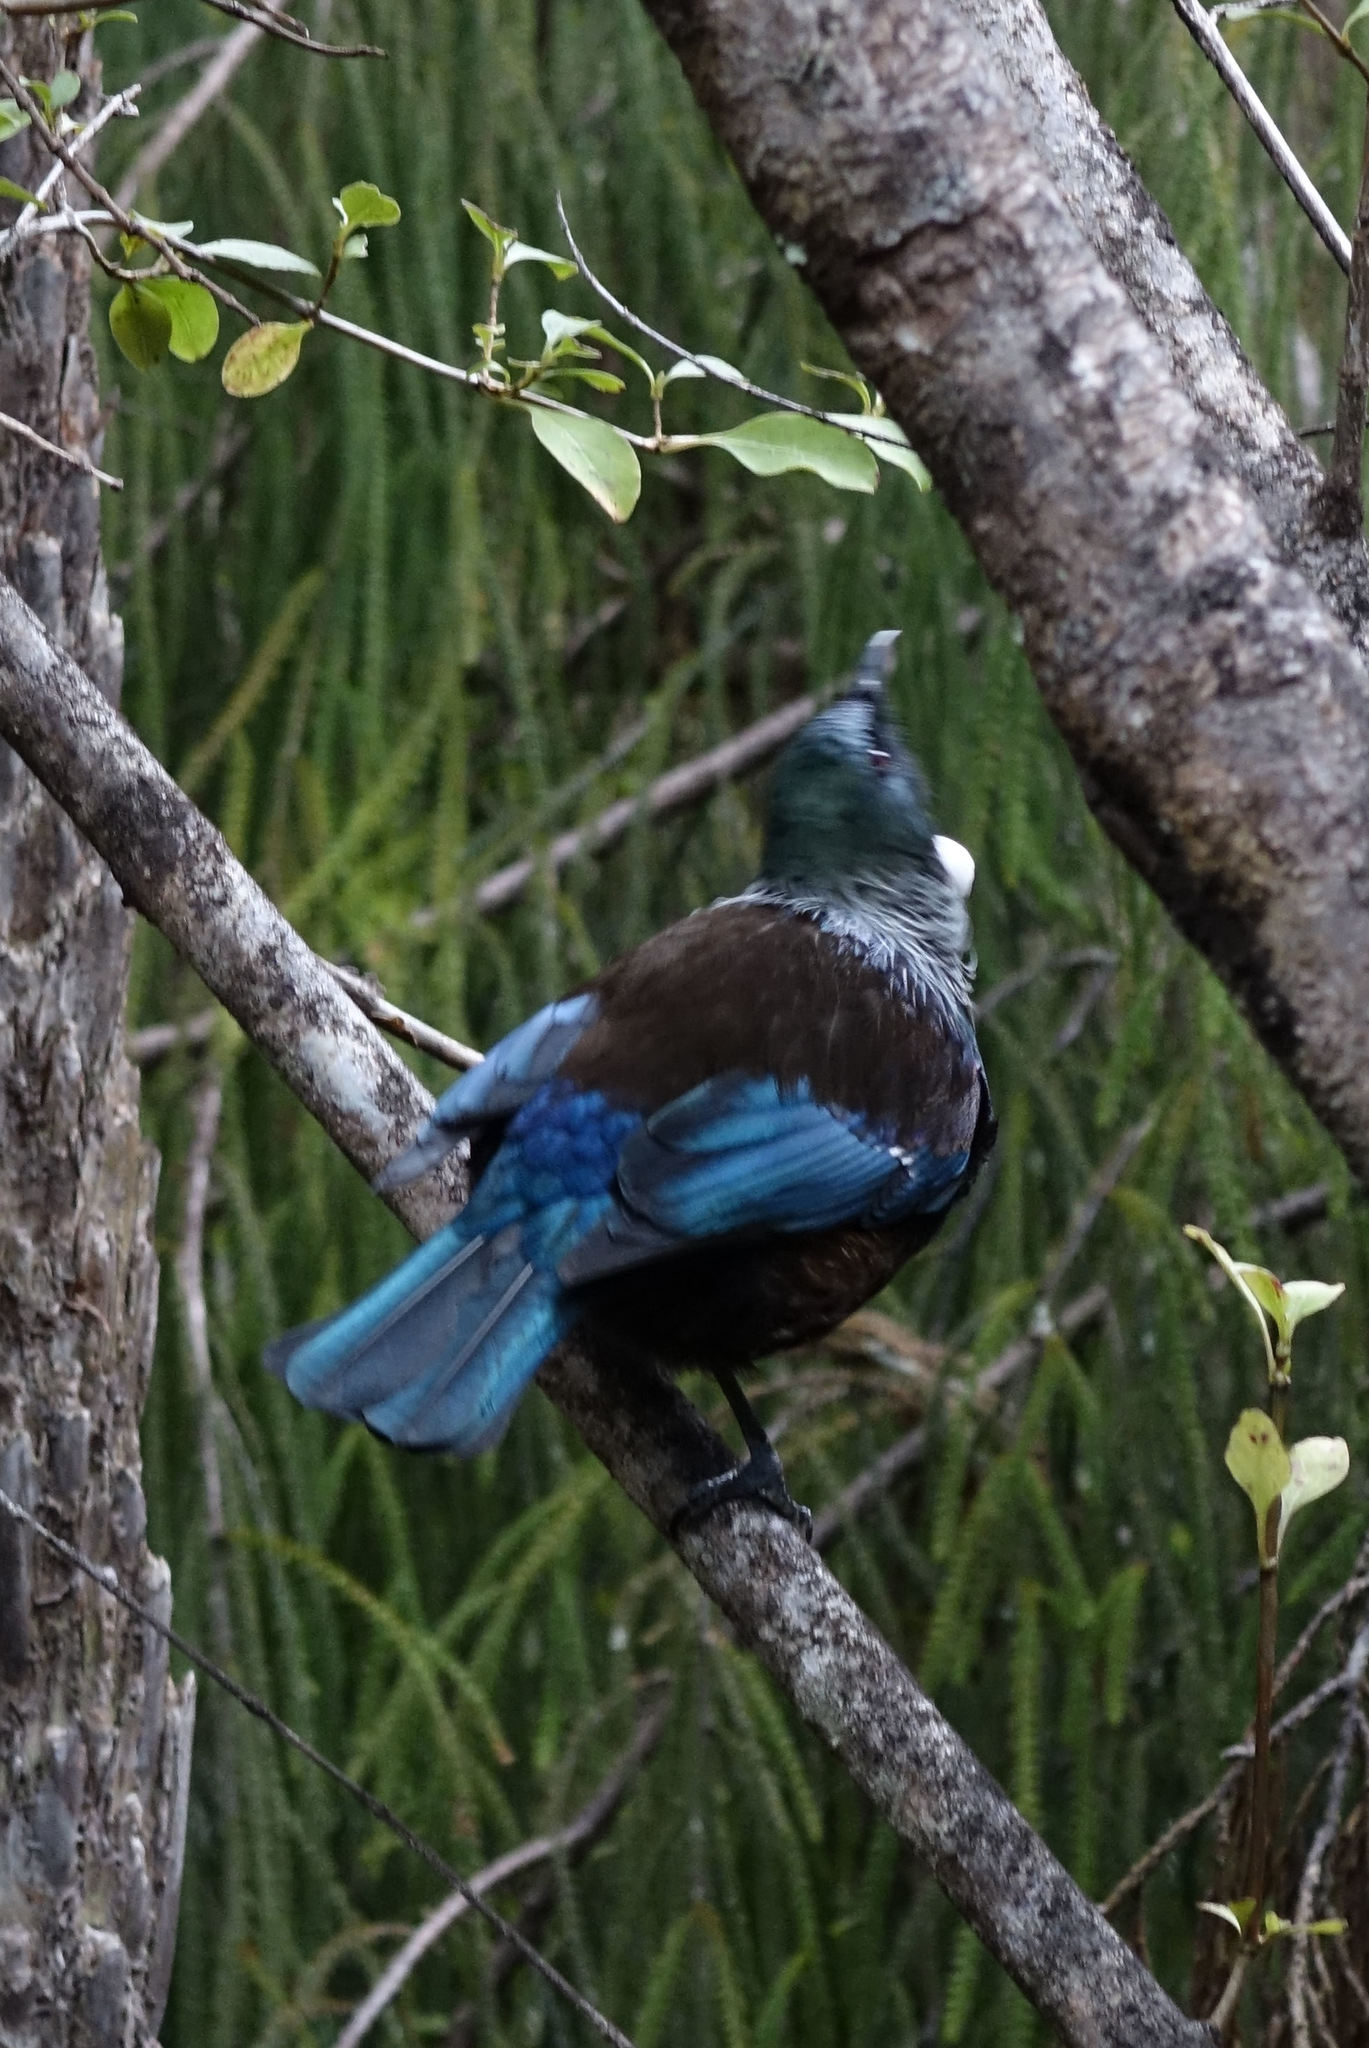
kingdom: Animalia
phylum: Chordata
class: Aves
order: Passeriformes
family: Meliphagidae
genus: Prosthemadera
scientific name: Prosthemadera novaeseelandiae
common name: Tui
